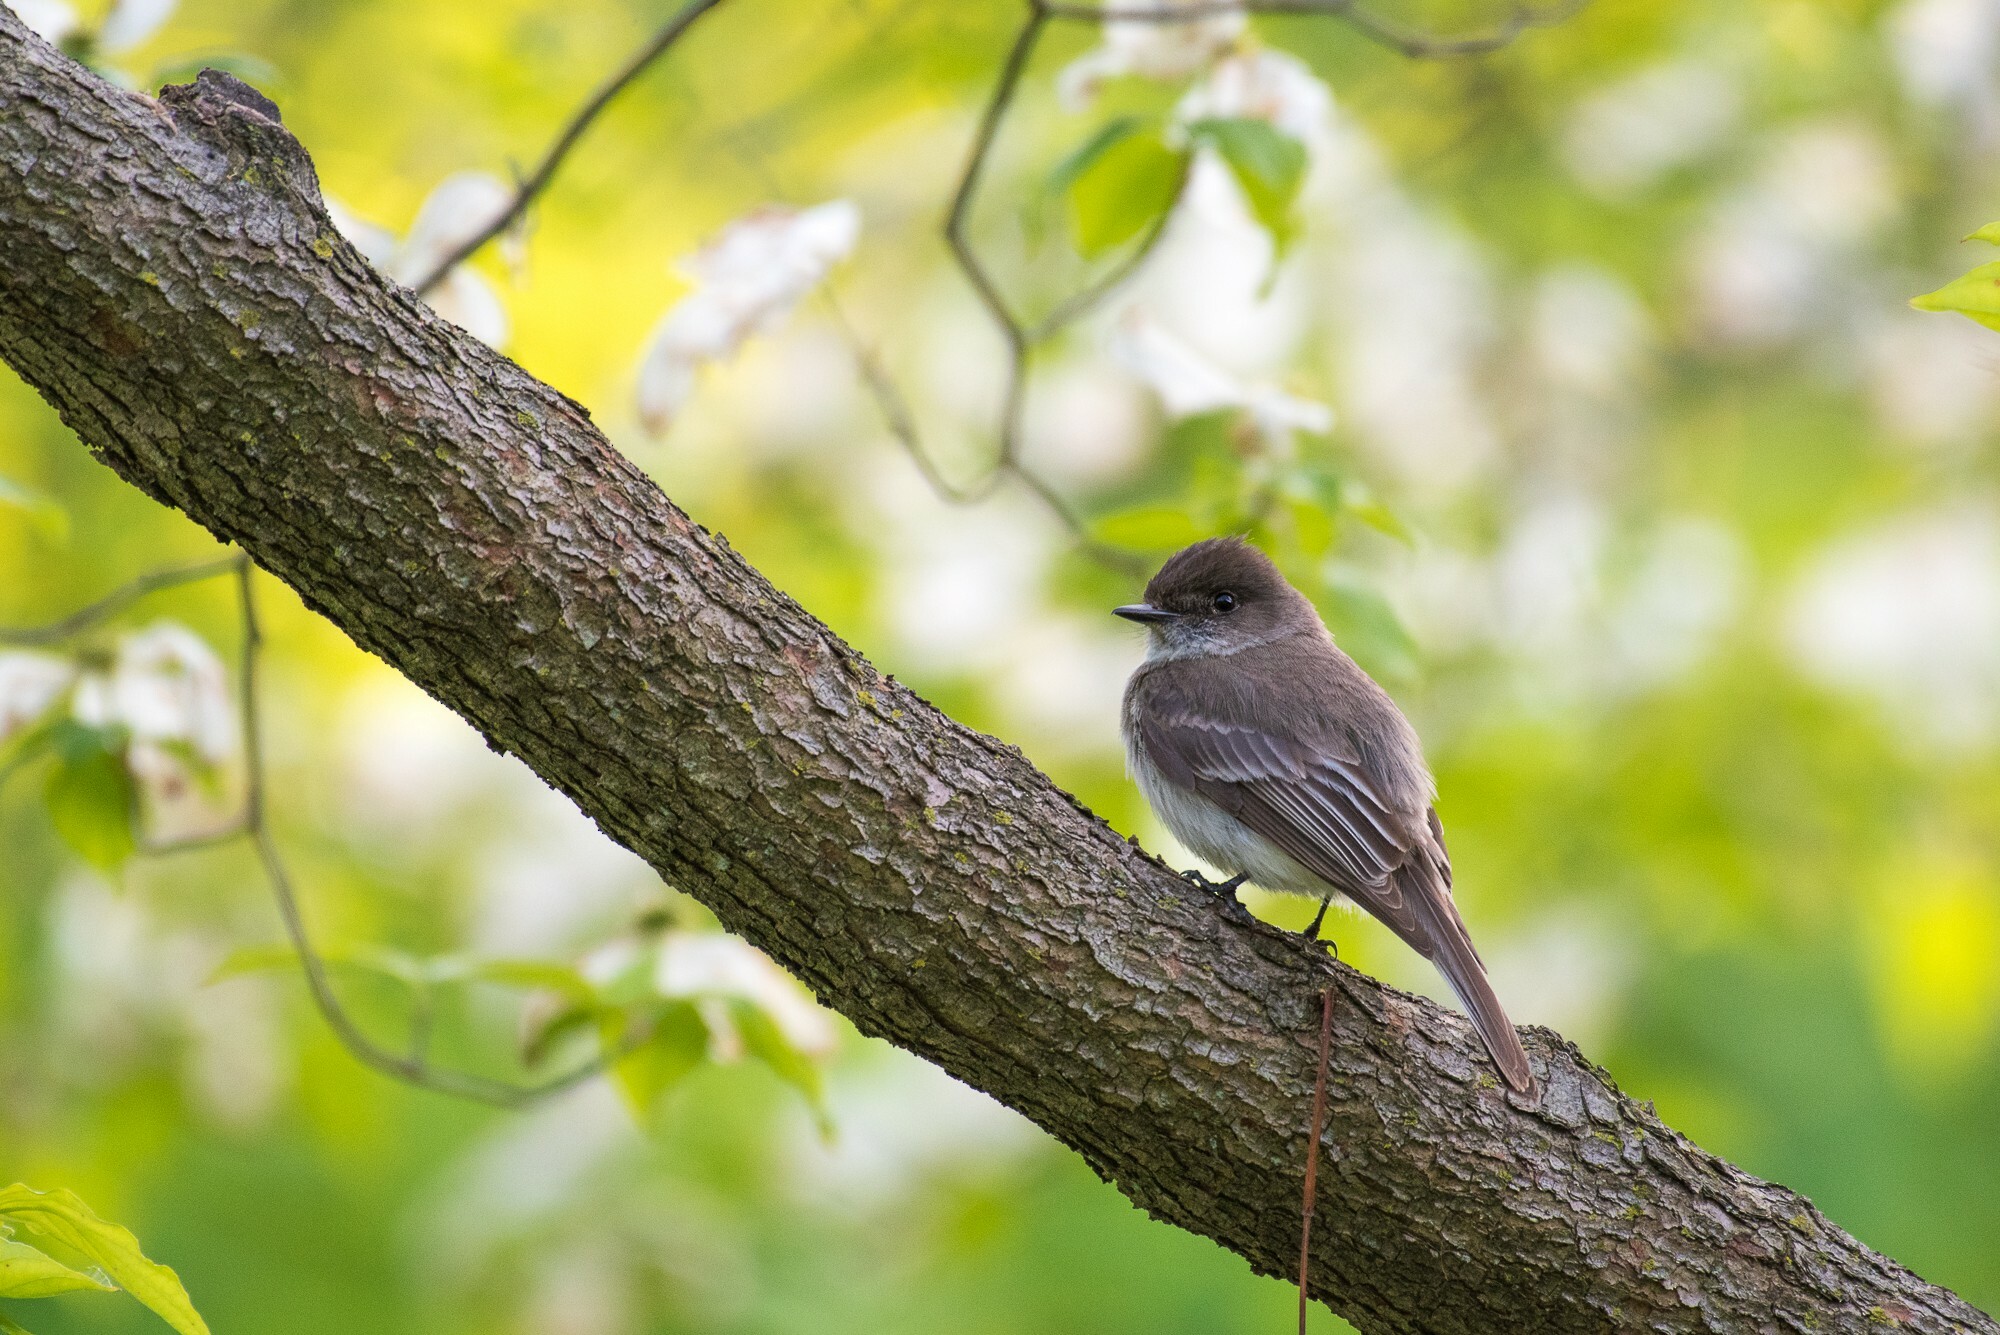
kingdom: Animalia
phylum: Chordata
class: Aves
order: Passeriformes
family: Tyrannidae
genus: Sayornis
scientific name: Sayornis phoebe
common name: Eastern phoebe
